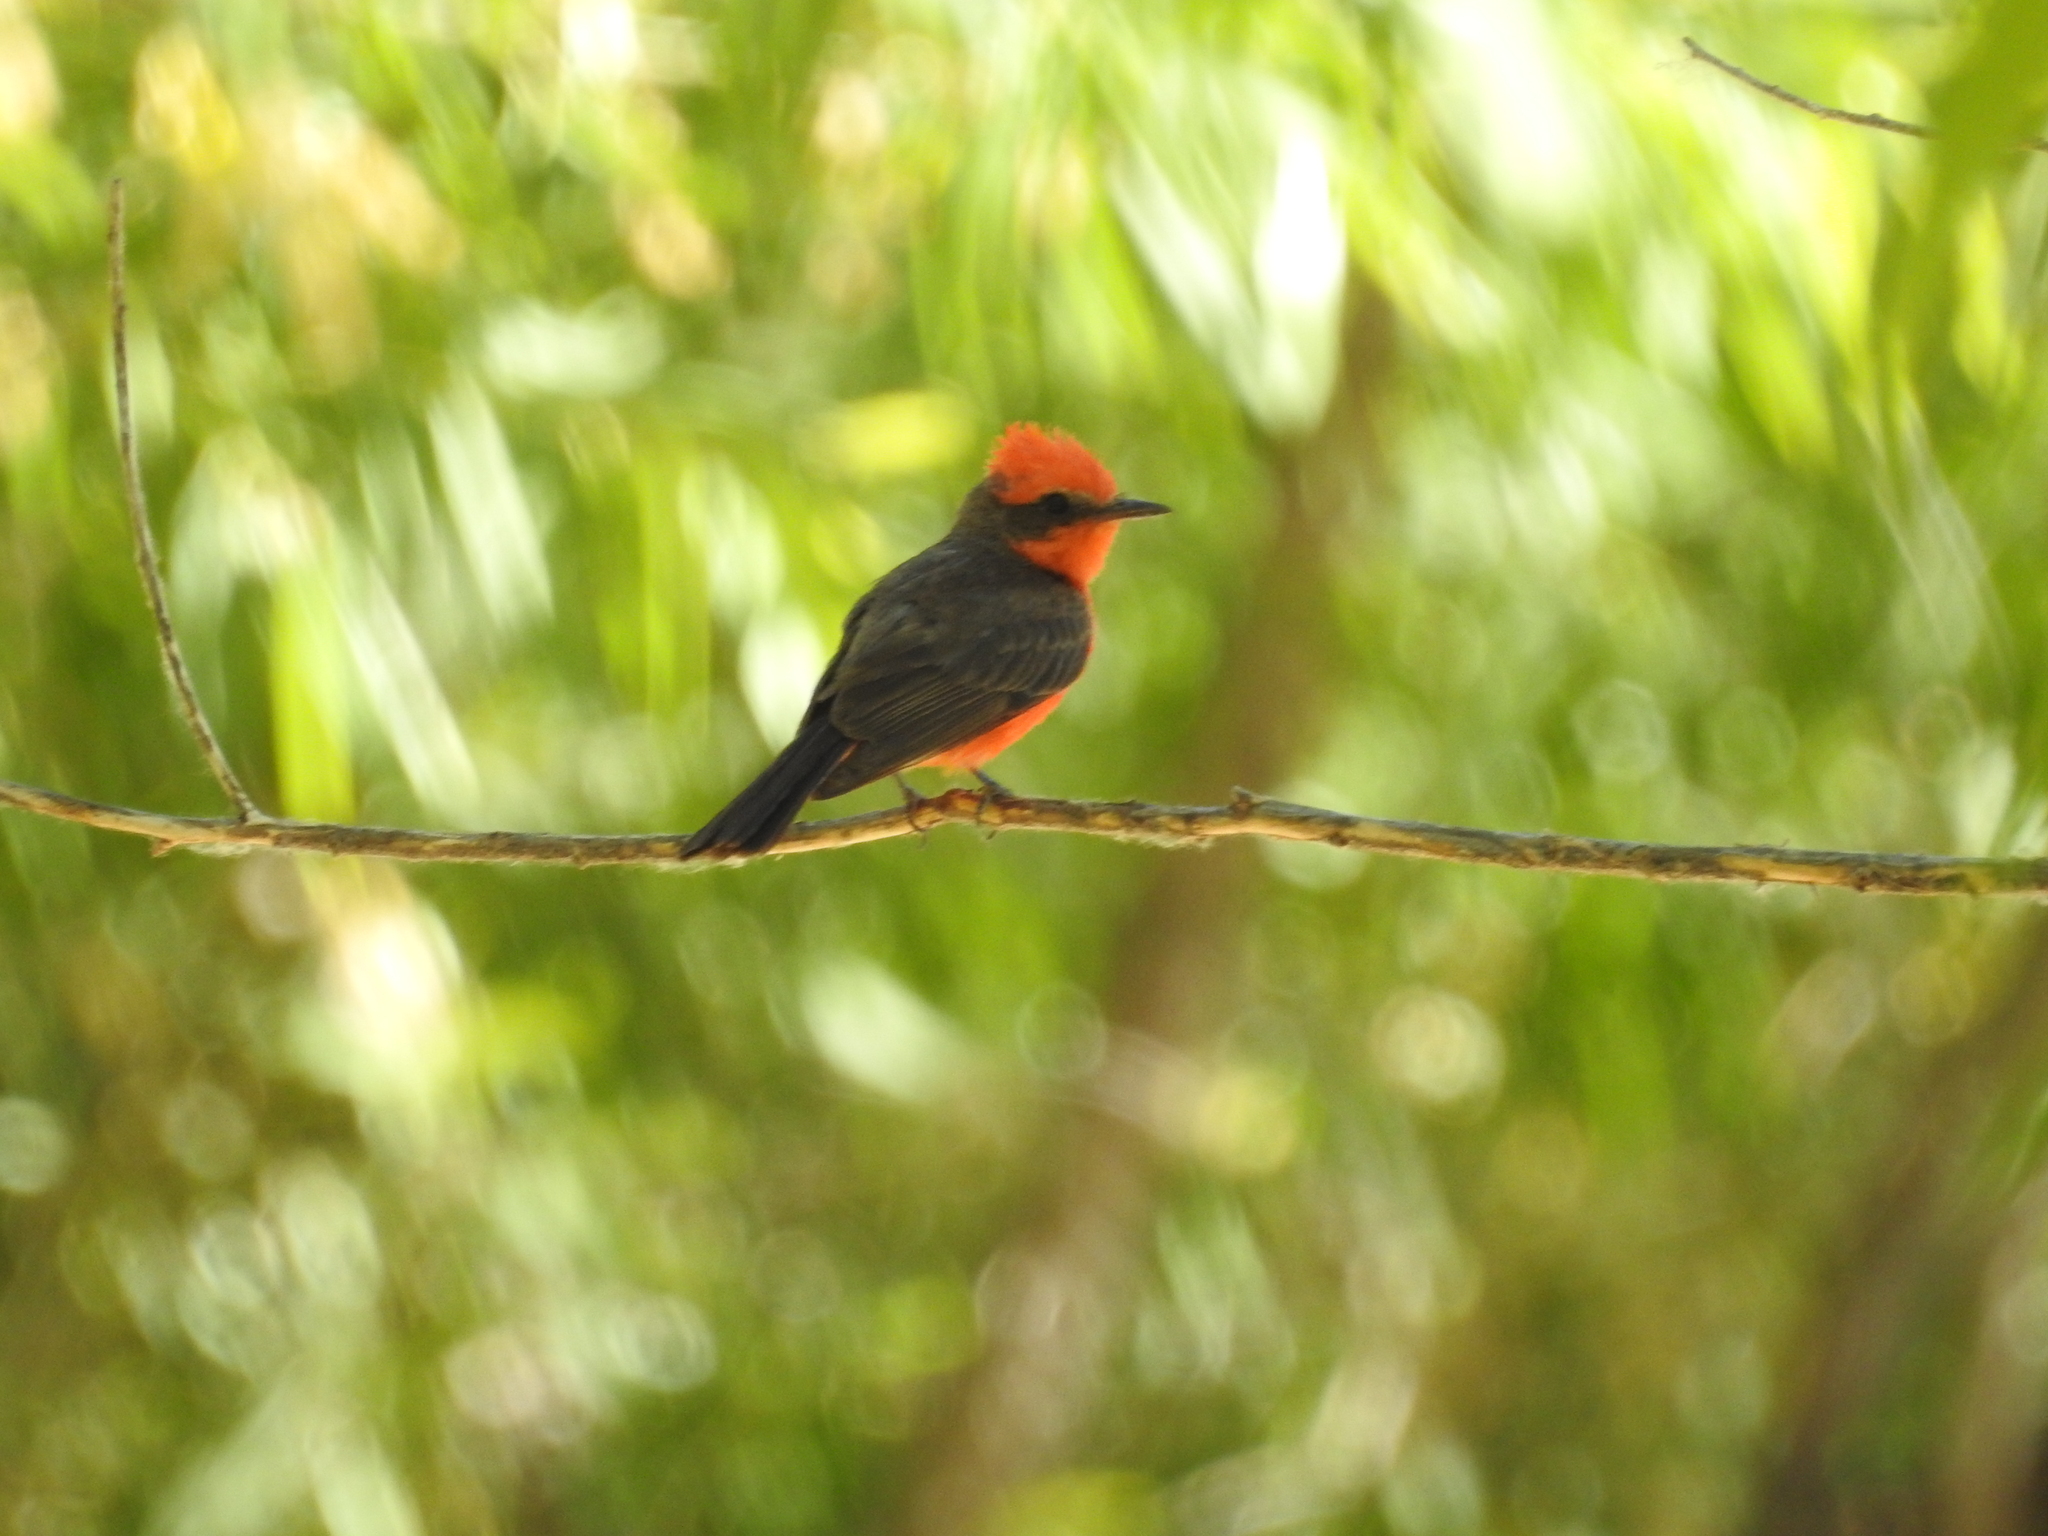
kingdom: Animalia
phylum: Chordata
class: Aves
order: Passeriformes
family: Tyrannidae
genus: Pyrocephalus
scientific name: Pyrocephalus rubinus
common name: Vermilion flycatcher
